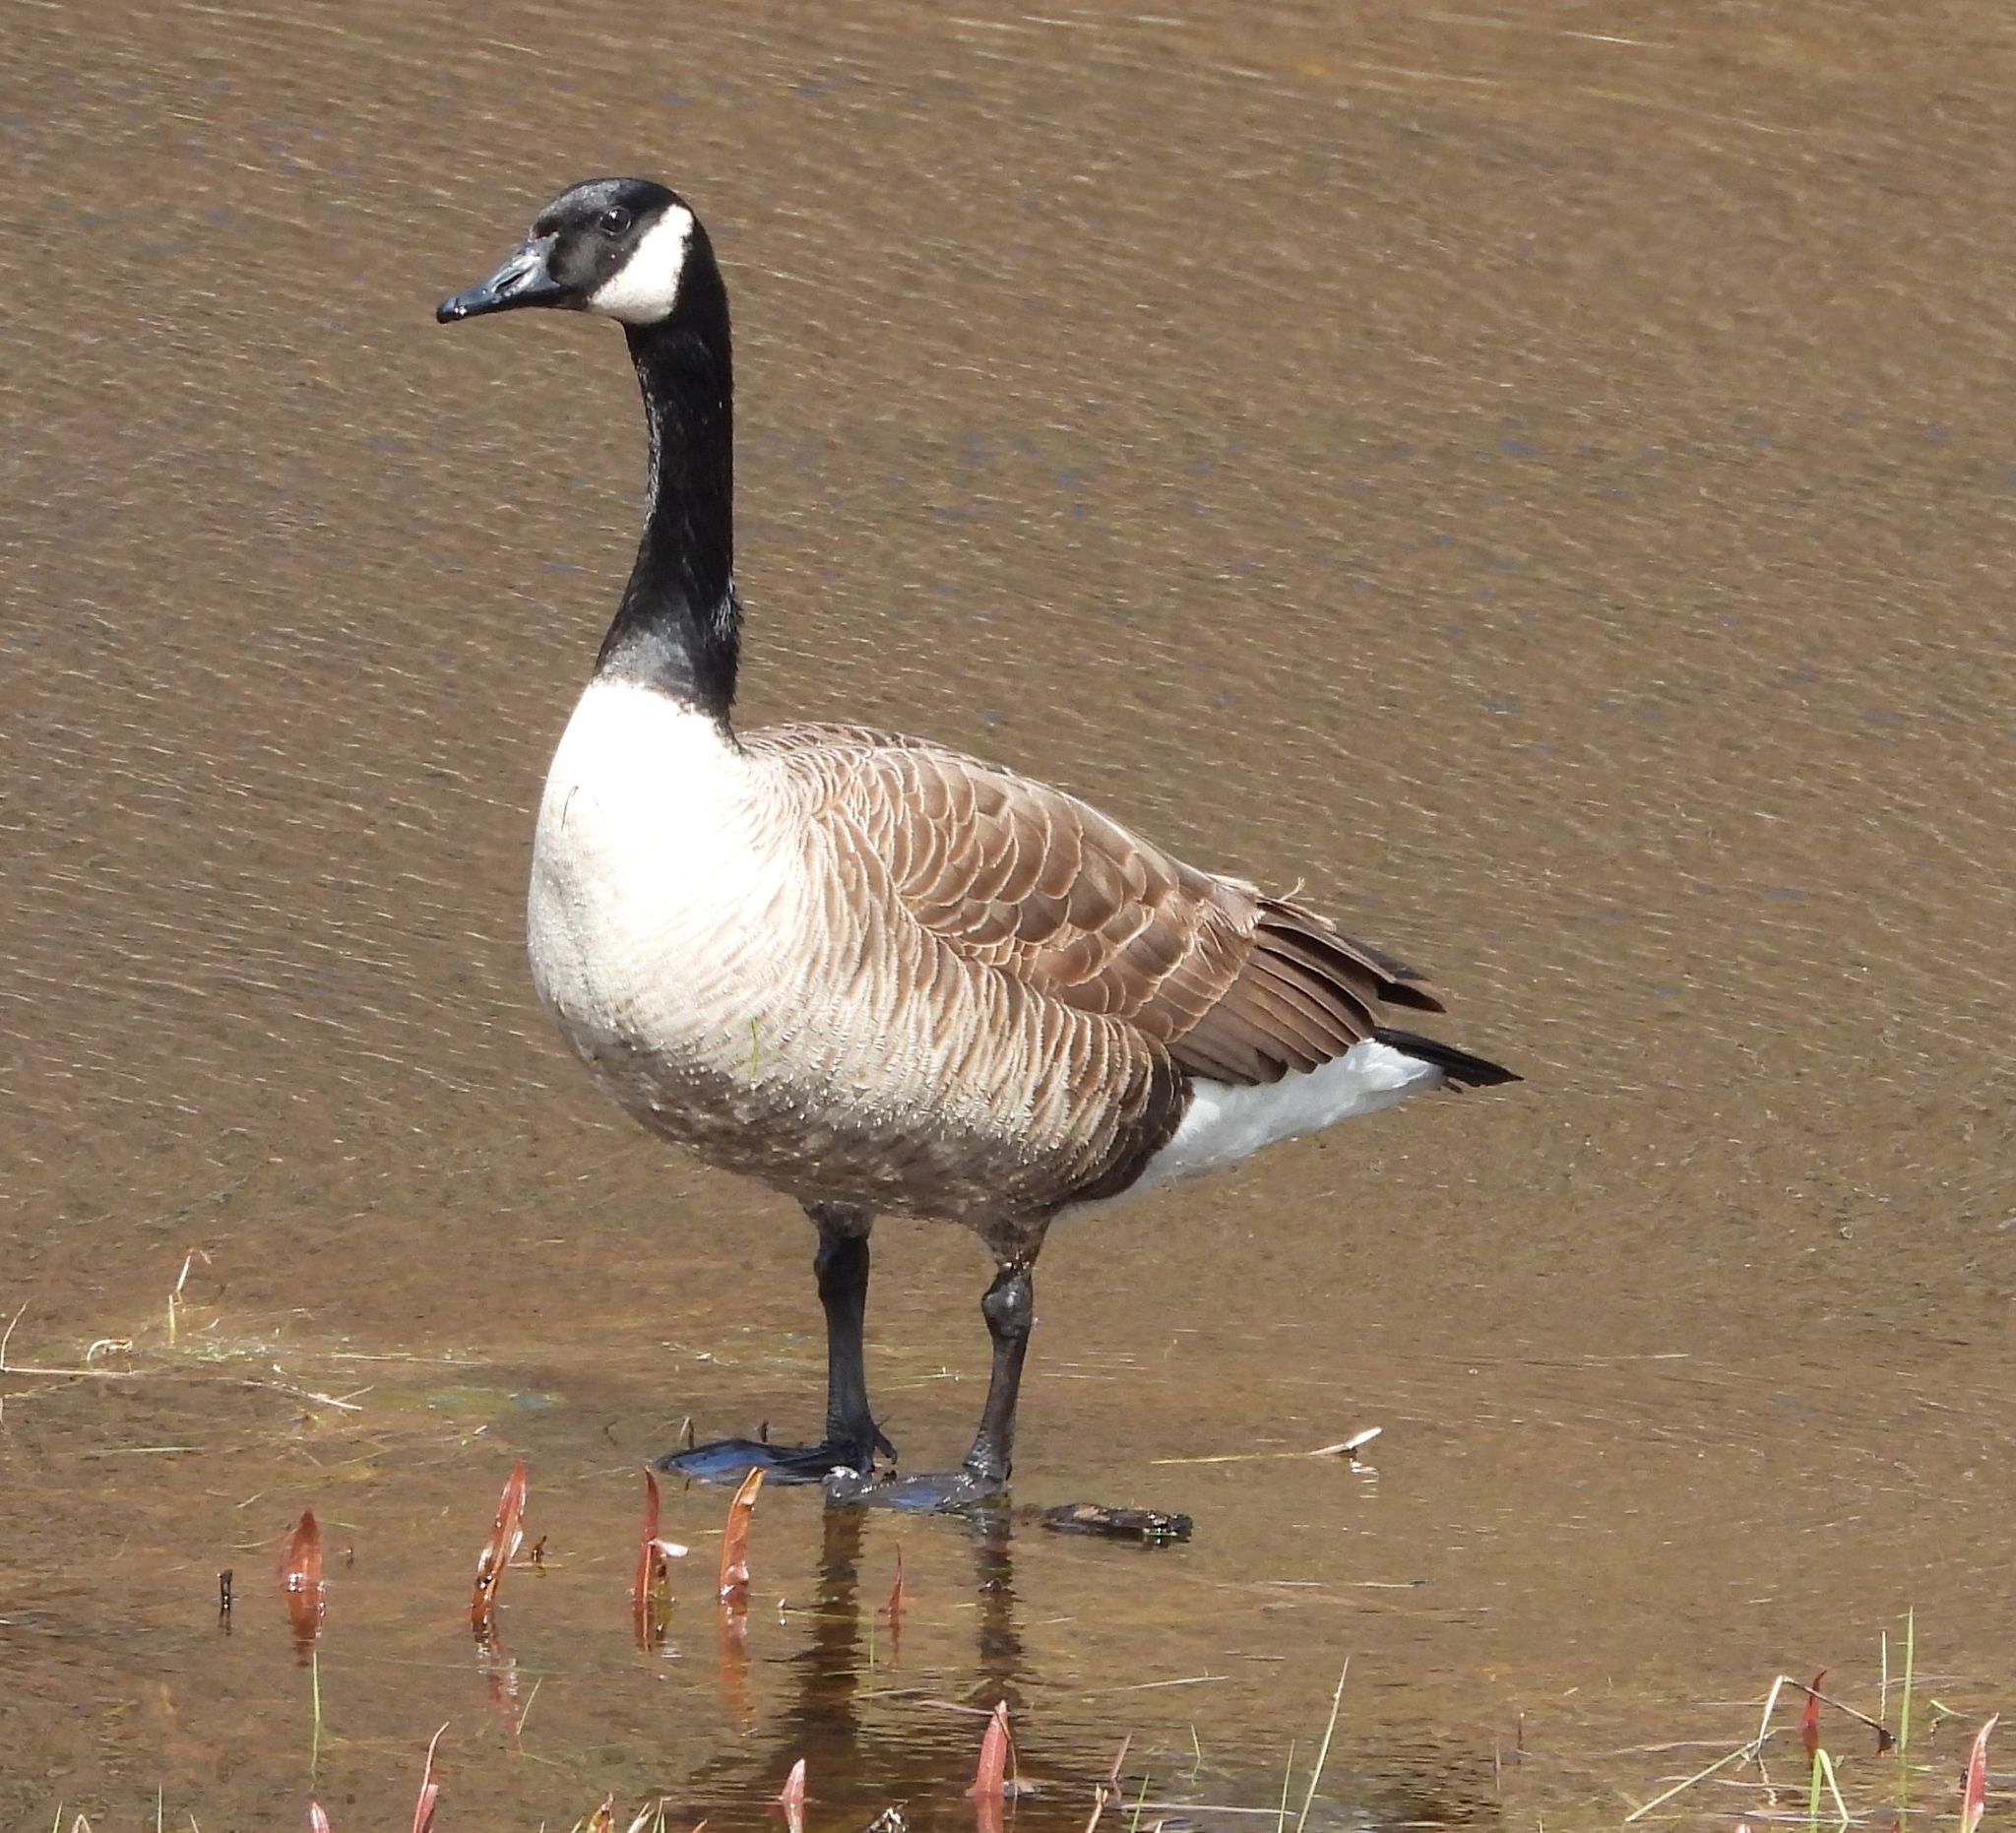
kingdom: Animalia
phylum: Chordata
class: Aves
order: Anseriformes
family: Anatidae
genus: Branta
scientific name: Branta canadensis
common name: Canada goose
